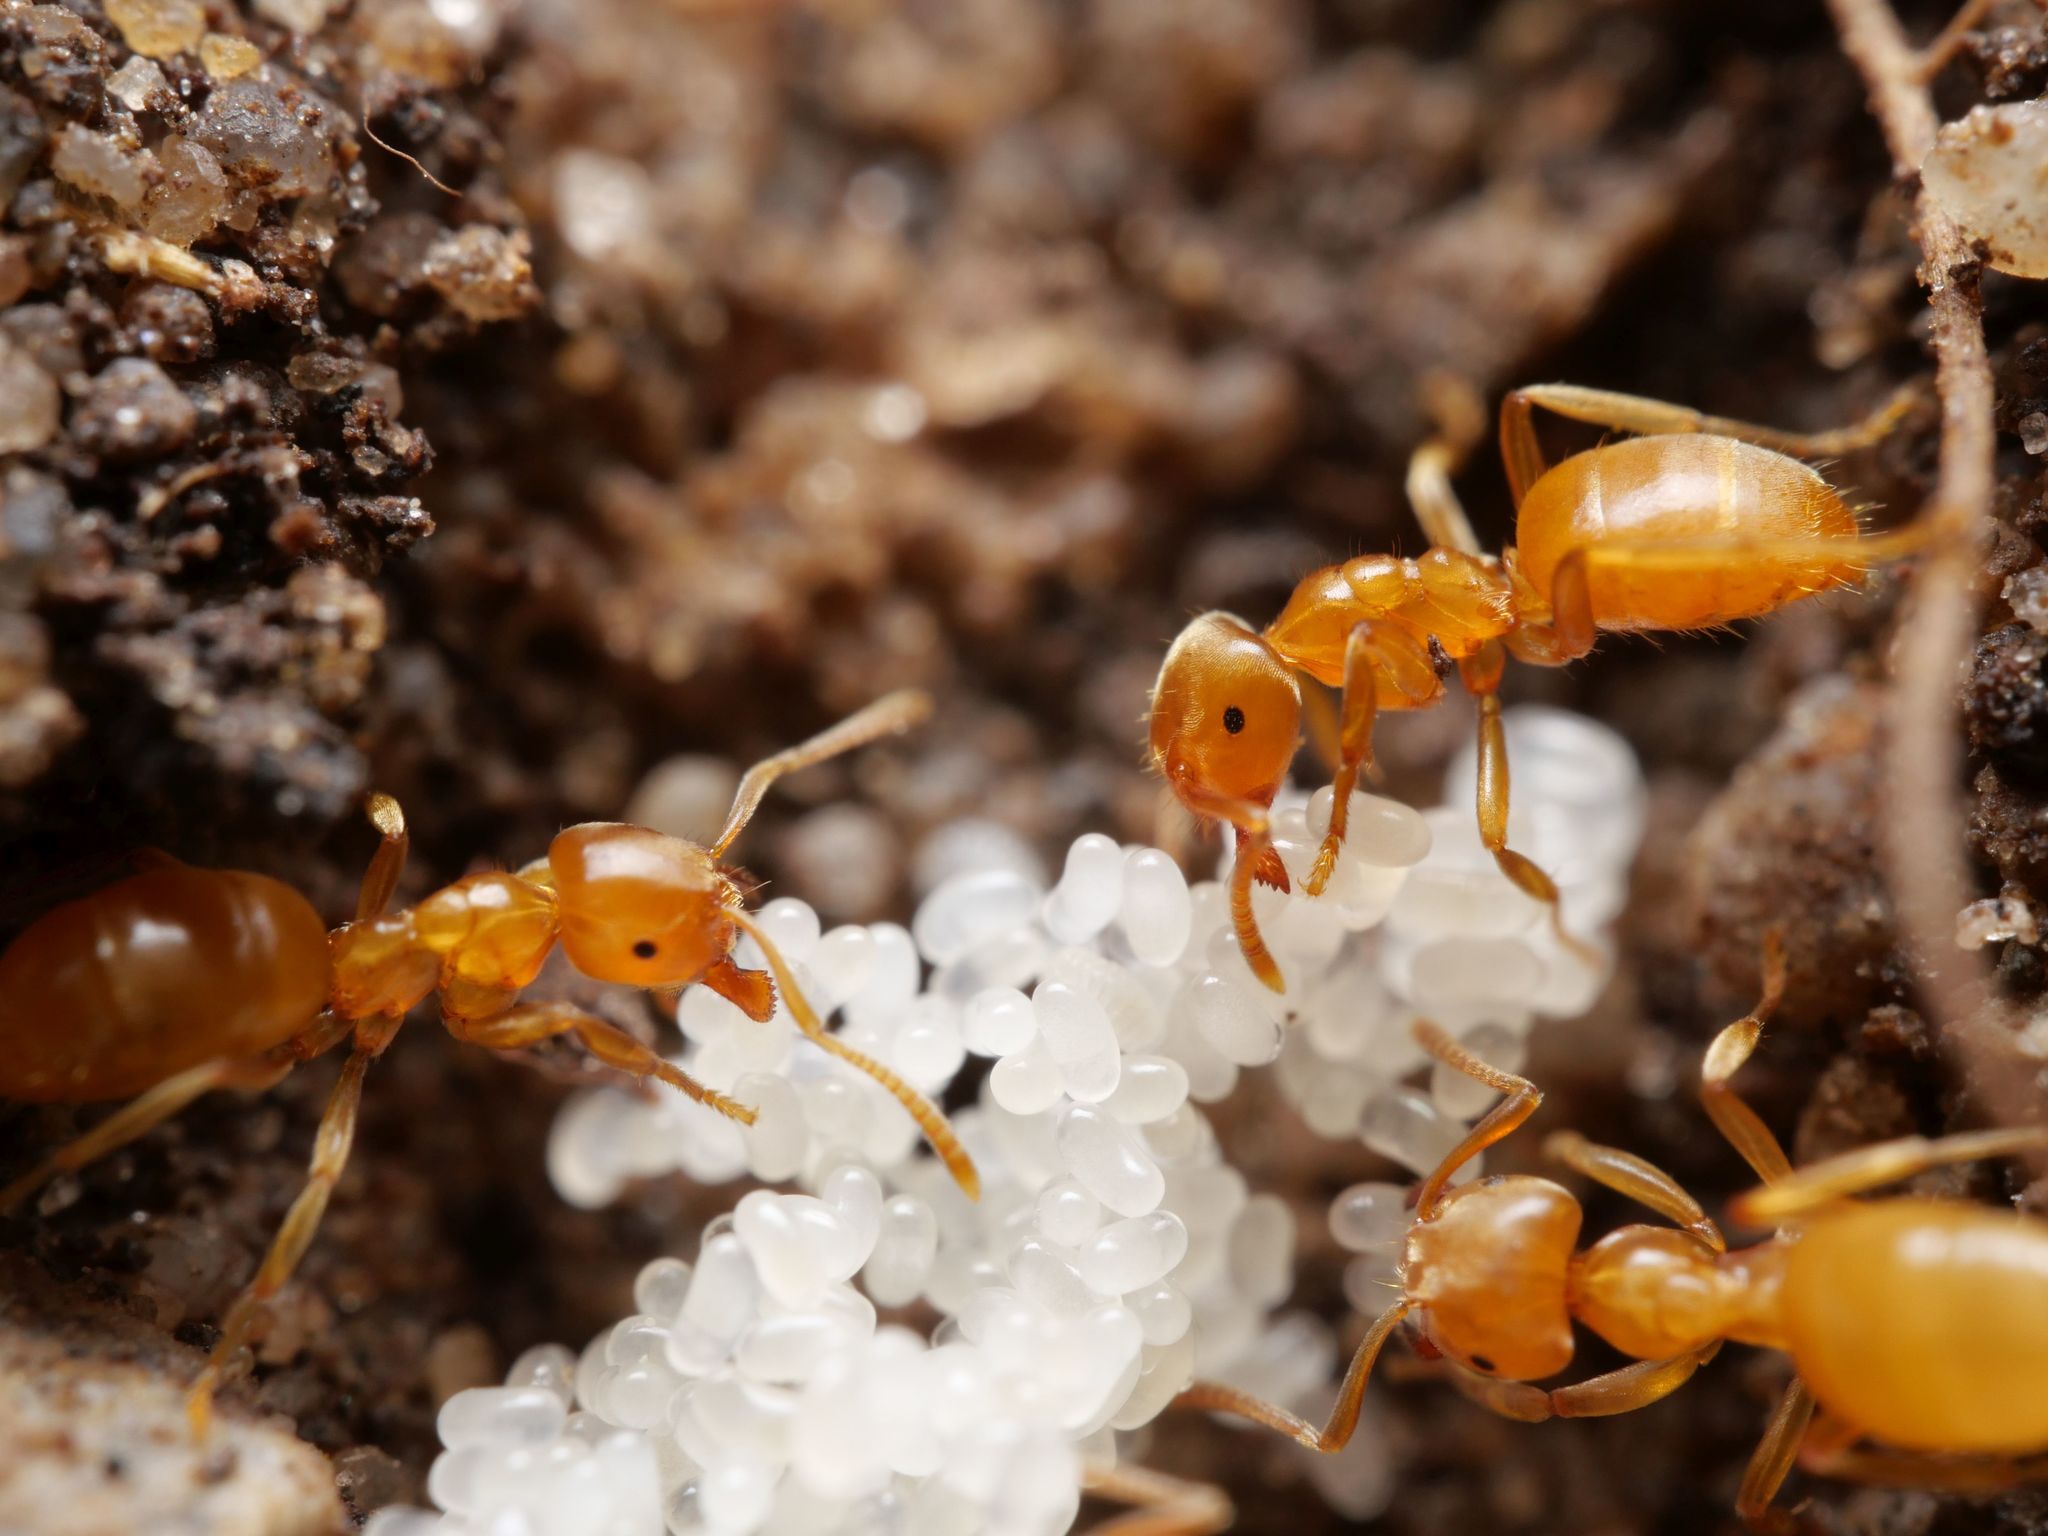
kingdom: Animalia
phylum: Arthropoda
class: Insecta
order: Hymenoptera
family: Formicidae
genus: Lasius
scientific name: Lasius flavus
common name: Blond field ant
